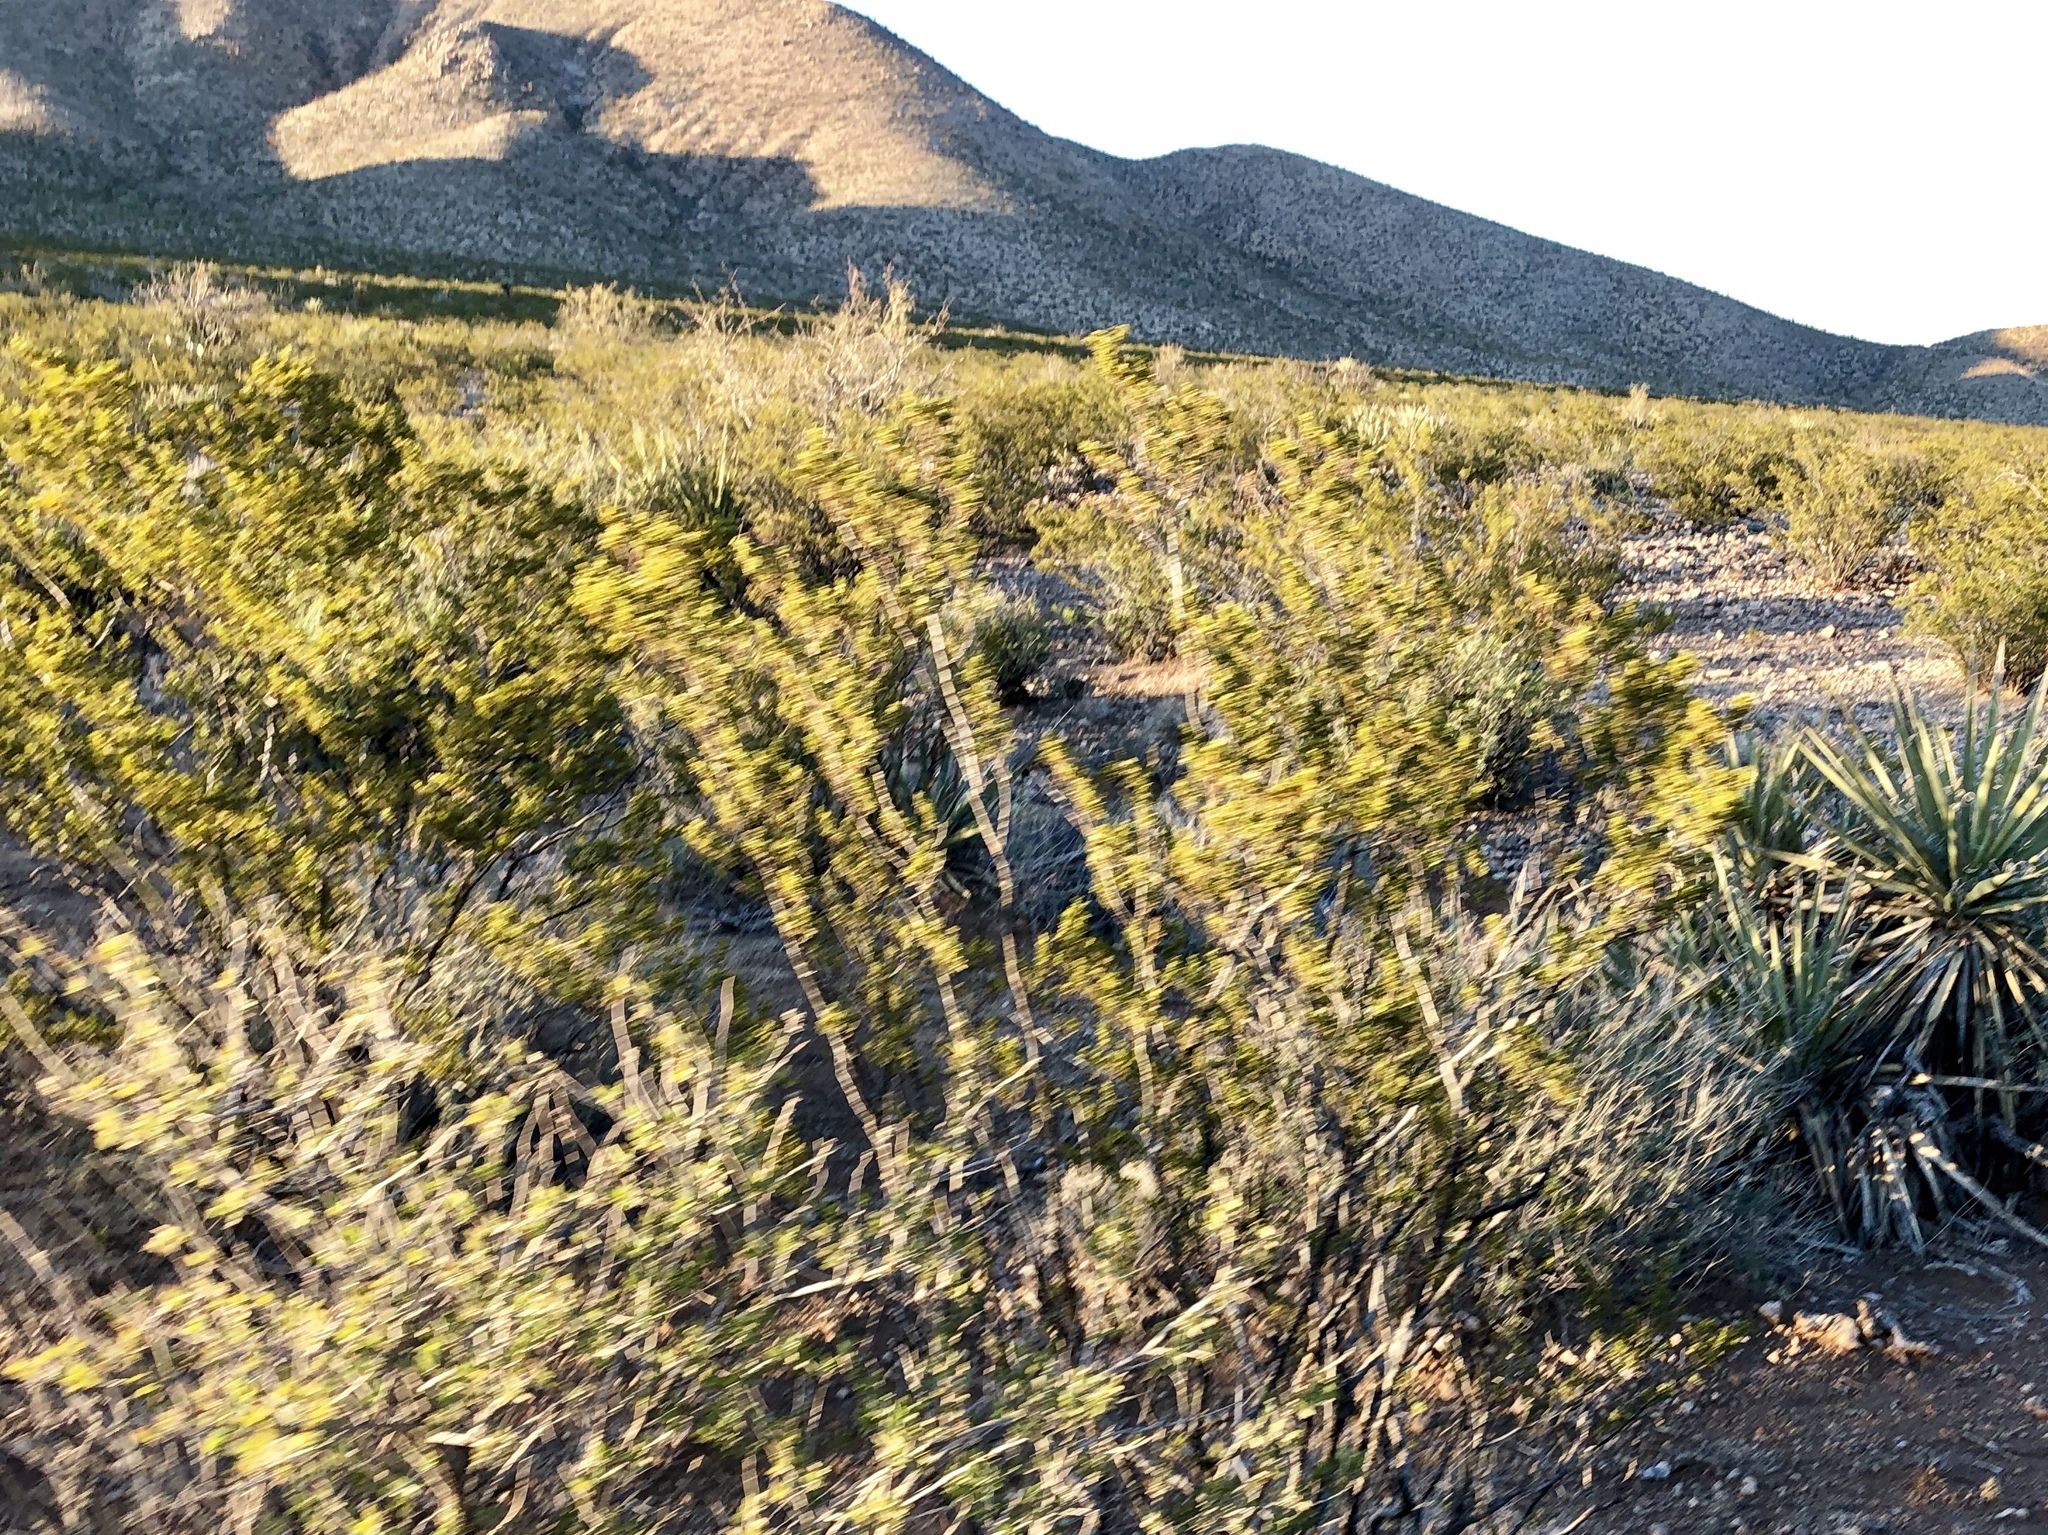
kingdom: Plantae
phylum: Tracheophyta
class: Magnoliopsida
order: Zygophyllales
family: Zygophyllaceae
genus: Larrea
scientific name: Larrea tridentata
